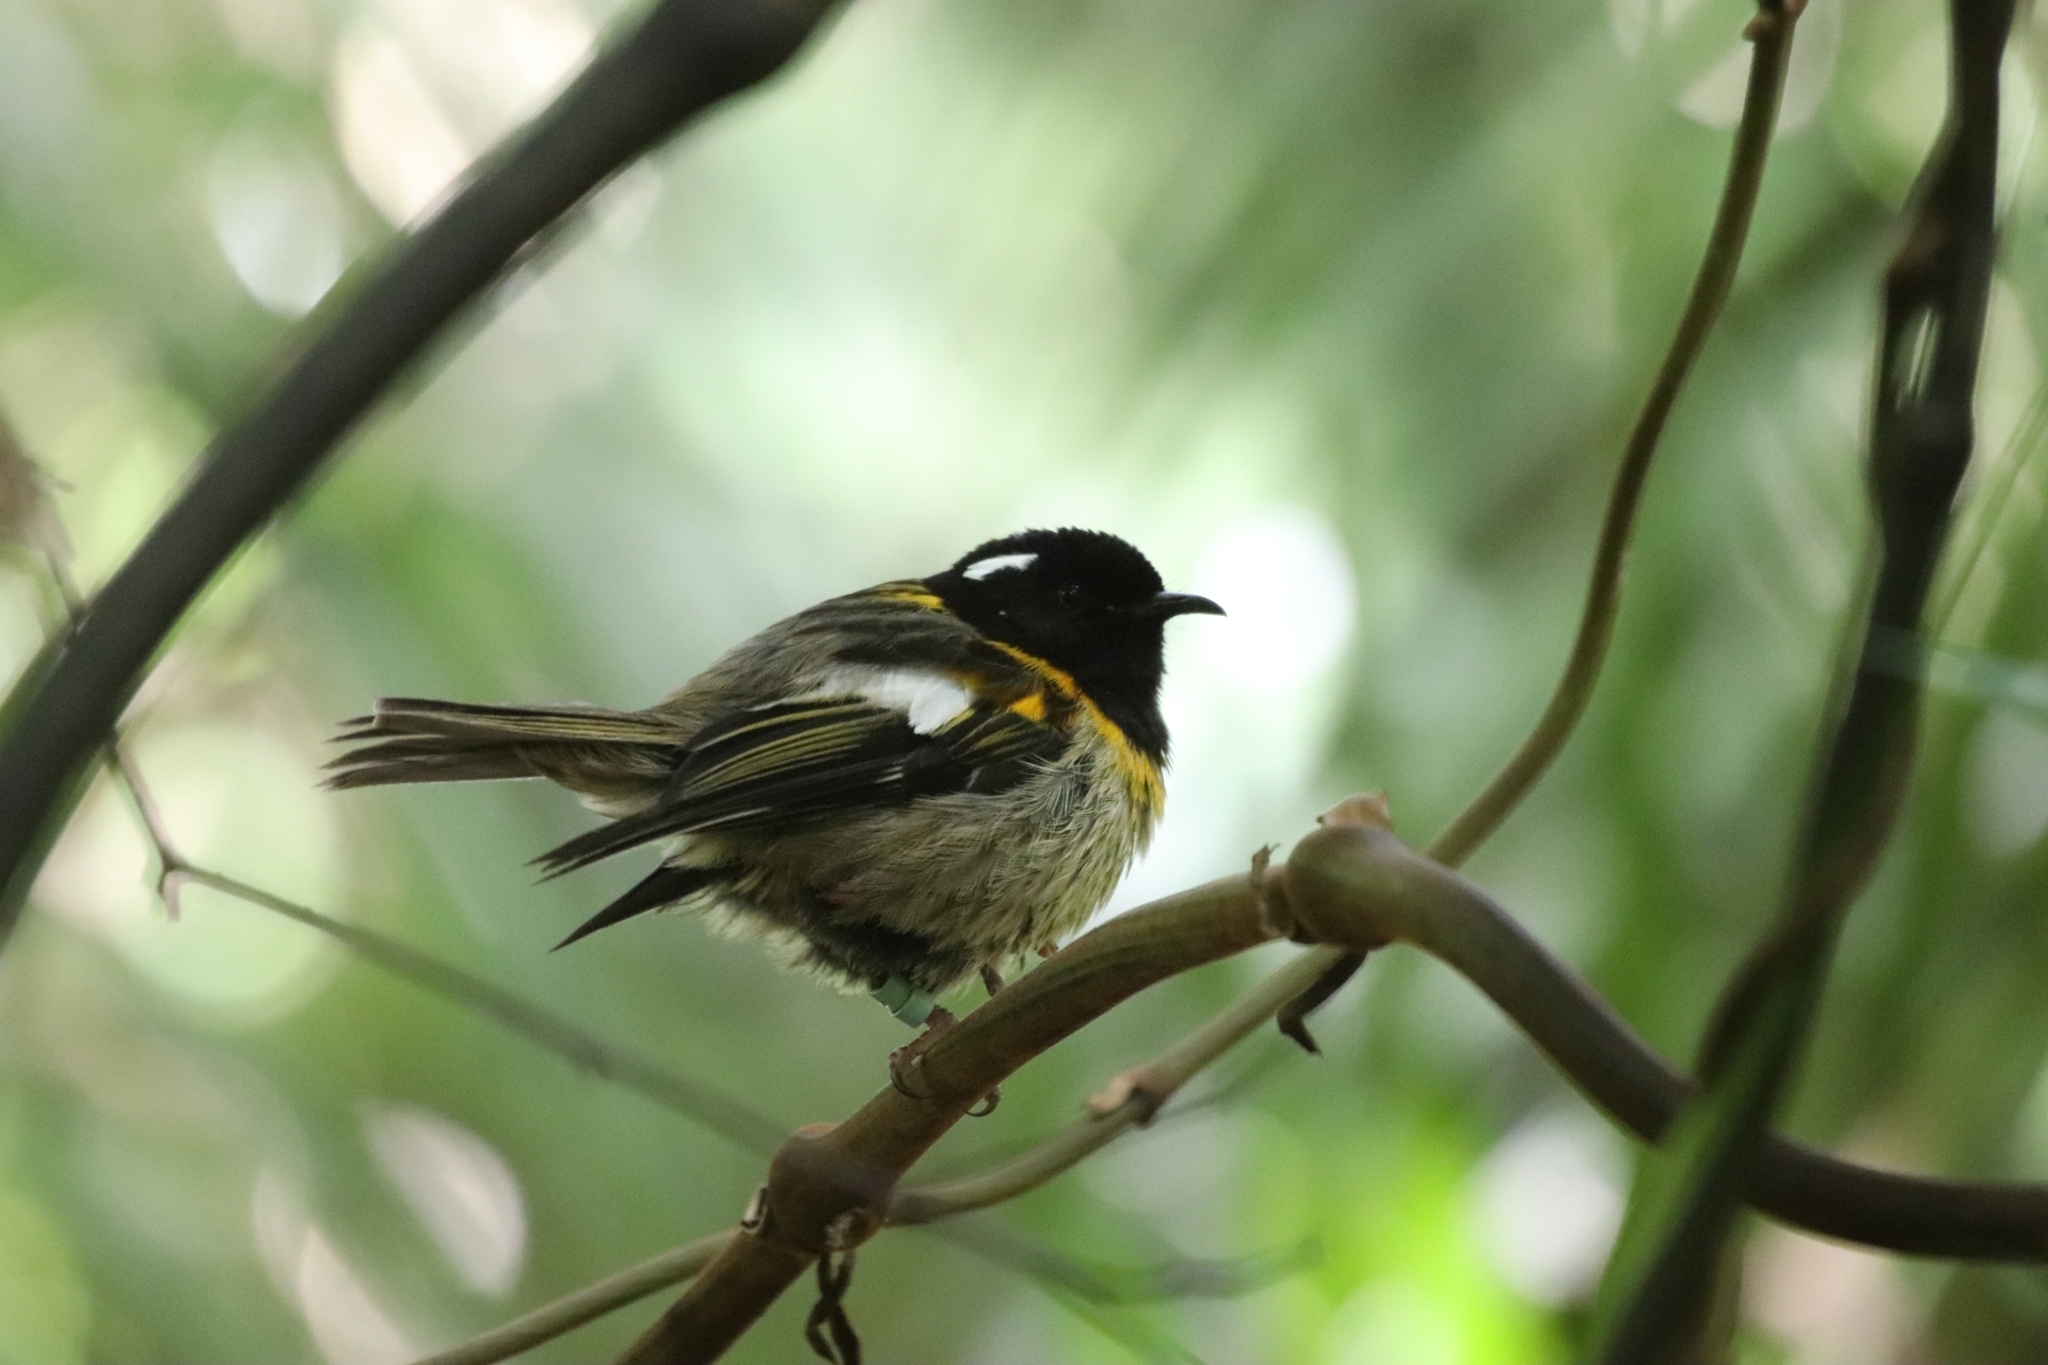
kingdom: Animalia
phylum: Chordata
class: Aves
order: Passeriformes
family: Notiomystidae
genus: Notiomystis
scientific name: Notiomystis cincta
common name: Stitchbird
